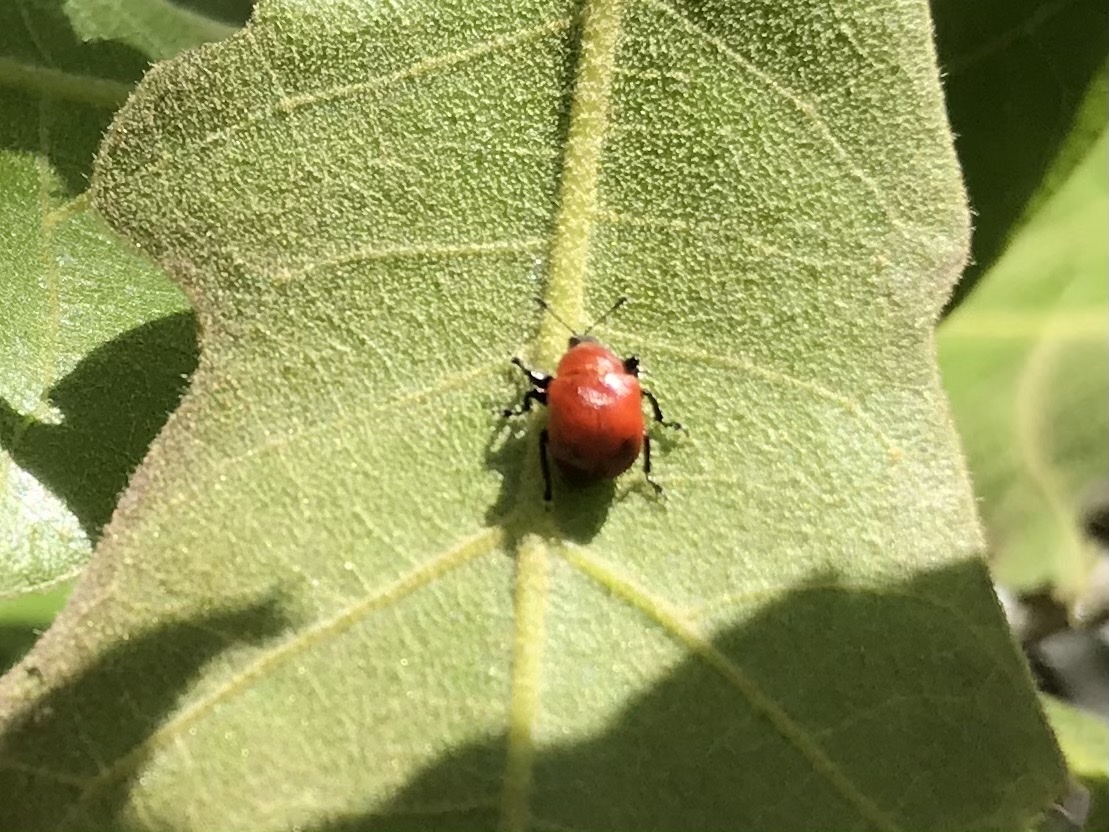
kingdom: Animalia
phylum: Arthropoda
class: Insecta
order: Coleoptera
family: Attelabidae
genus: Homoeolabus
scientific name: Homoeolabus analis
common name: Oak leaf rolling weevil
